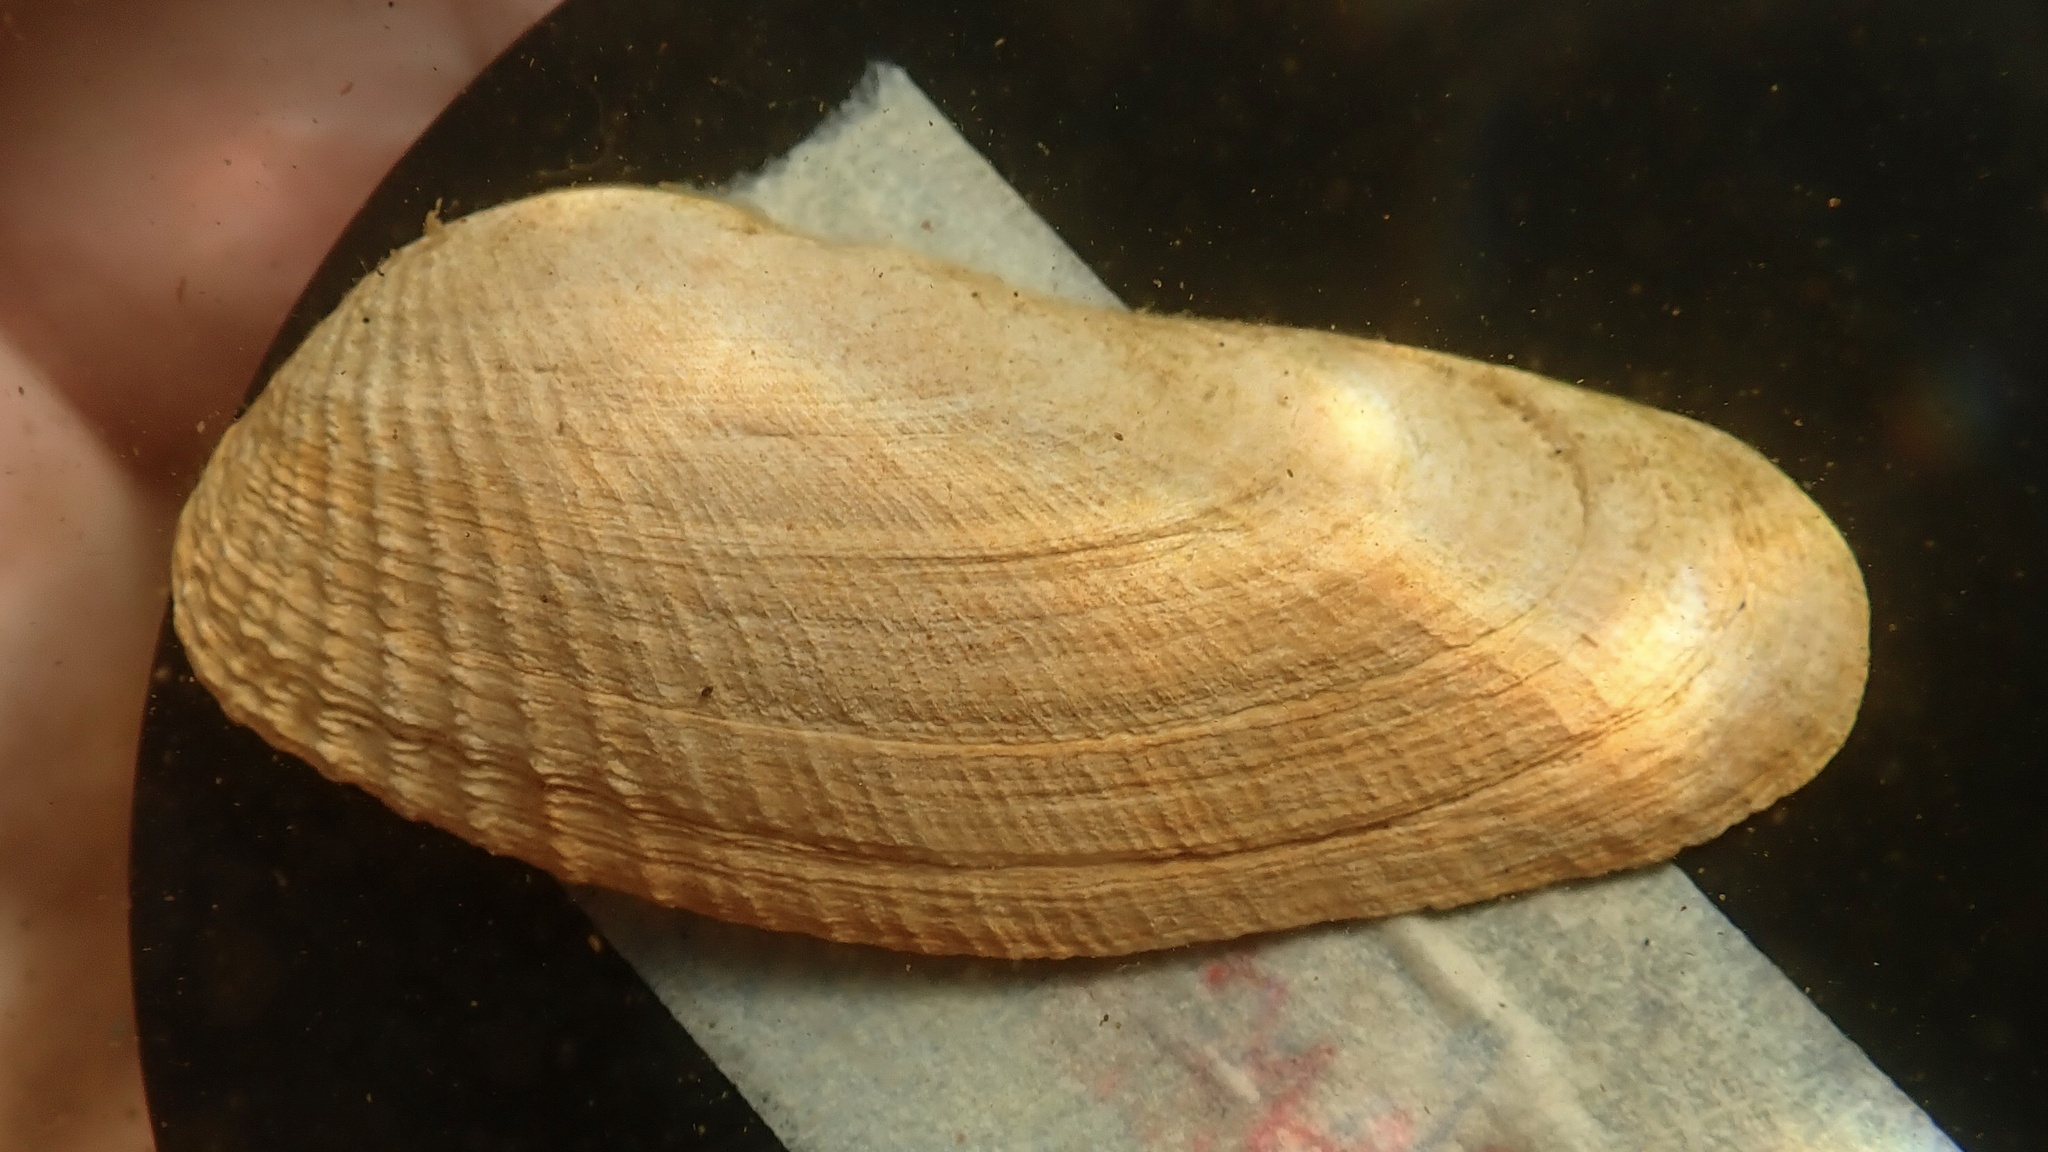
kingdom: Animalia
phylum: Mollusca
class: Bivalvia
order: Venerida
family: Veneridae
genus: Petricolaria
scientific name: Petricolaria pholadiformis
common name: American piddock
